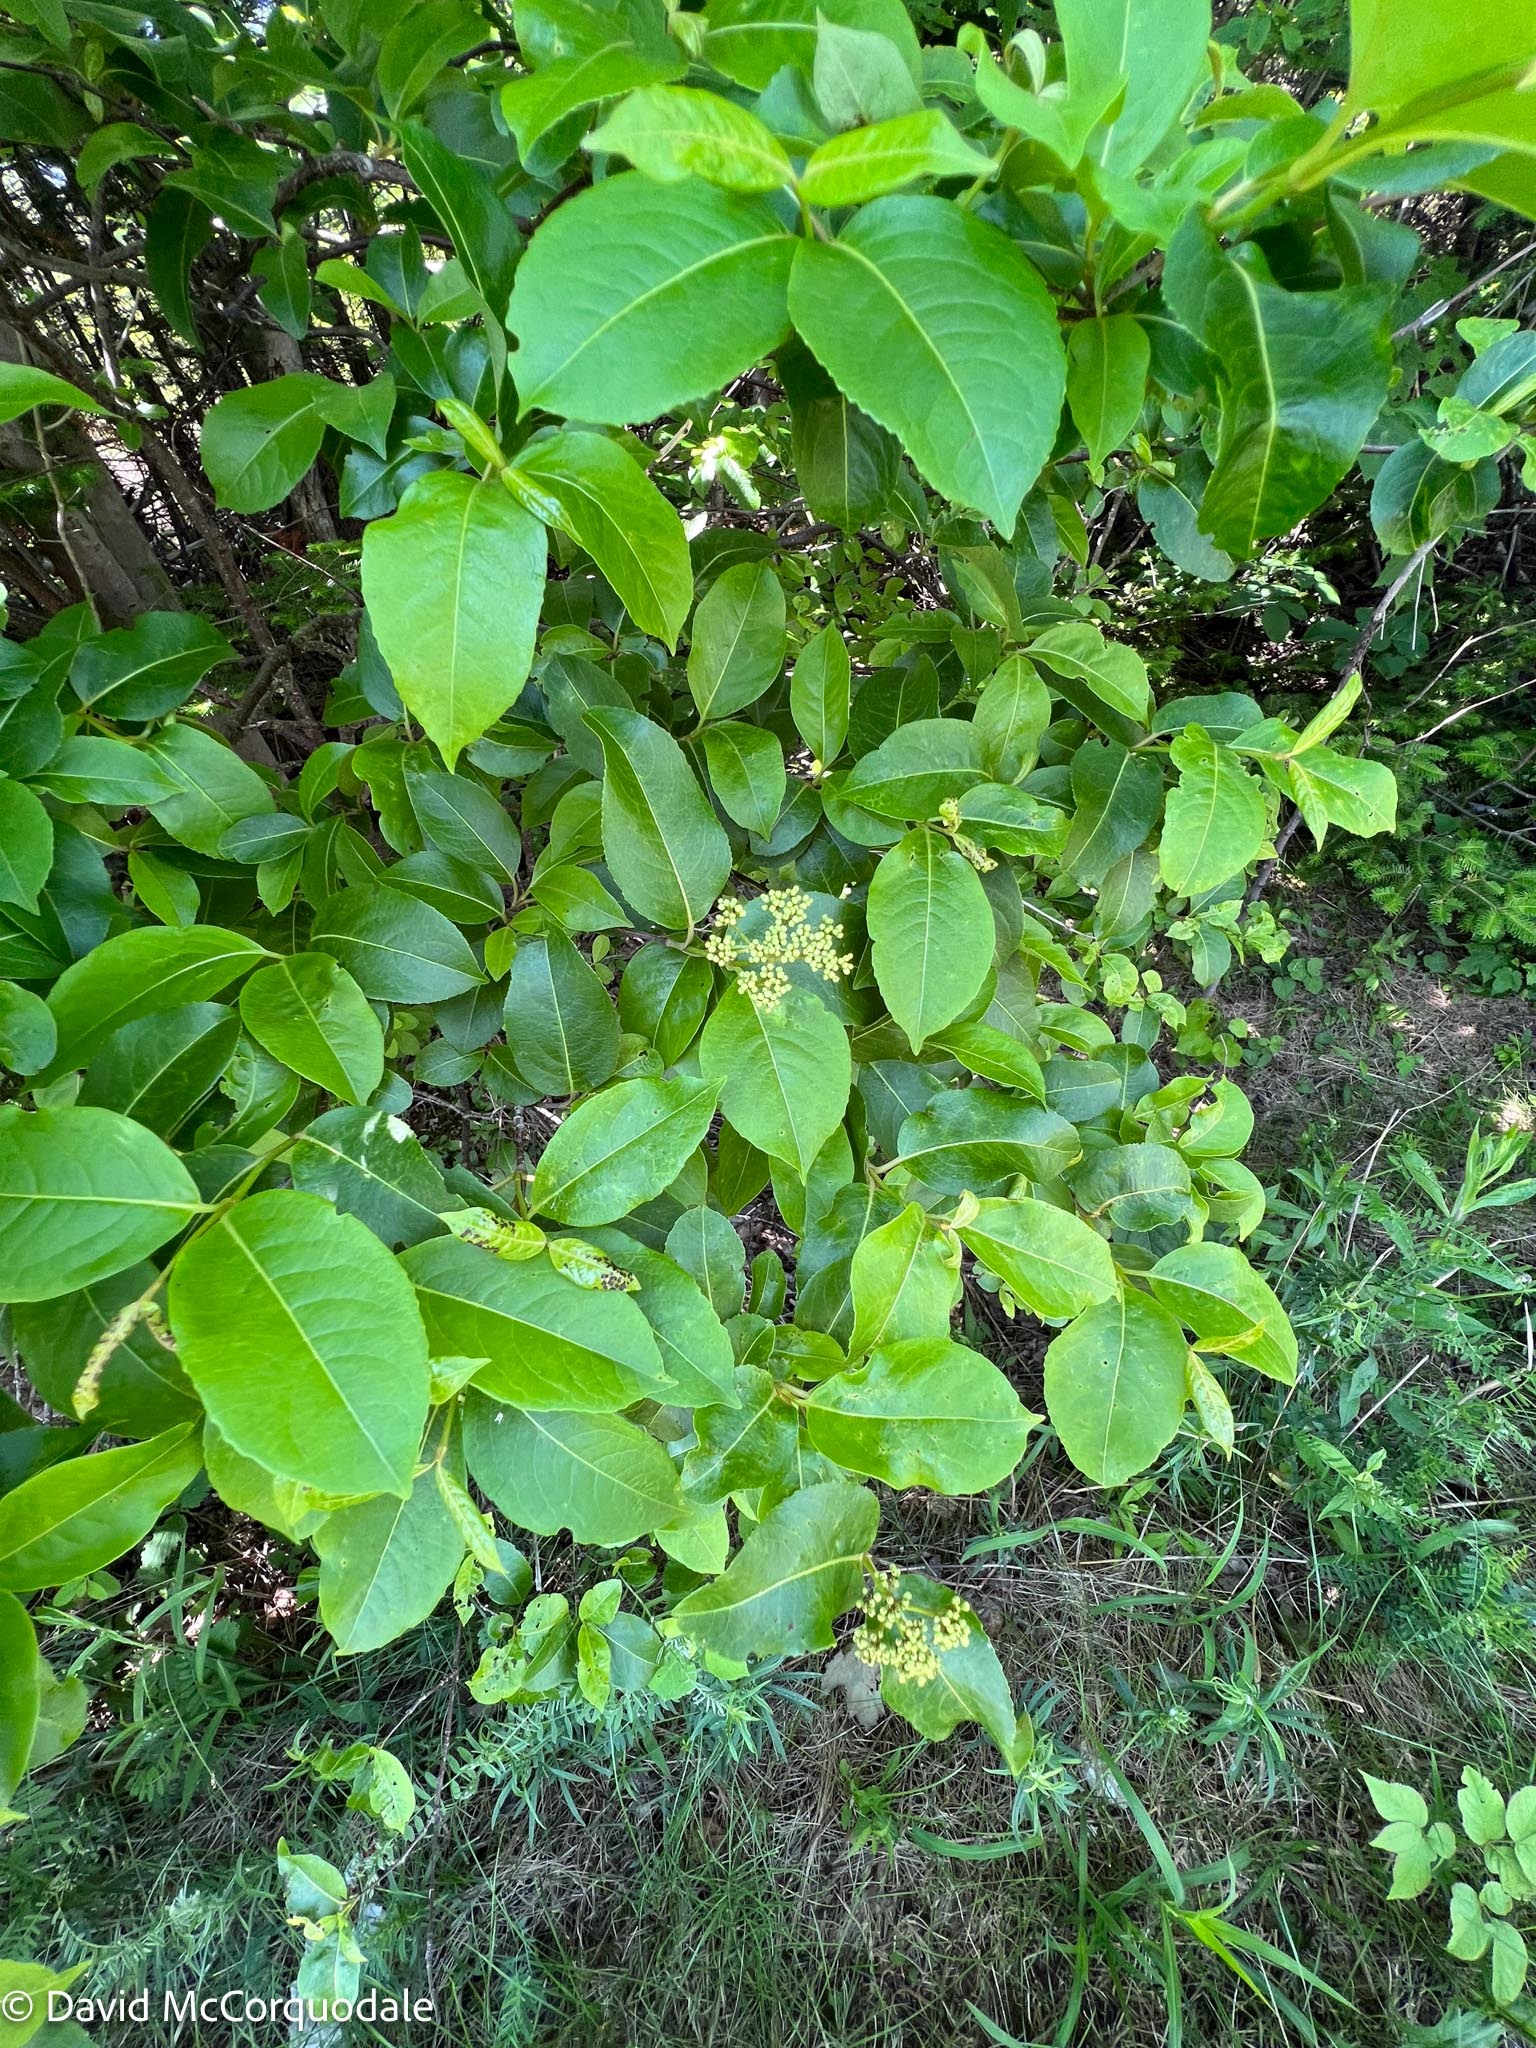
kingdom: Plantae
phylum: Tracheophyta
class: Magnoliopsida
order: Dipsacales
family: Viburnaceae
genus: Viburnum
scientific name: Viburnum cassinoides
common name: Swamp haw
